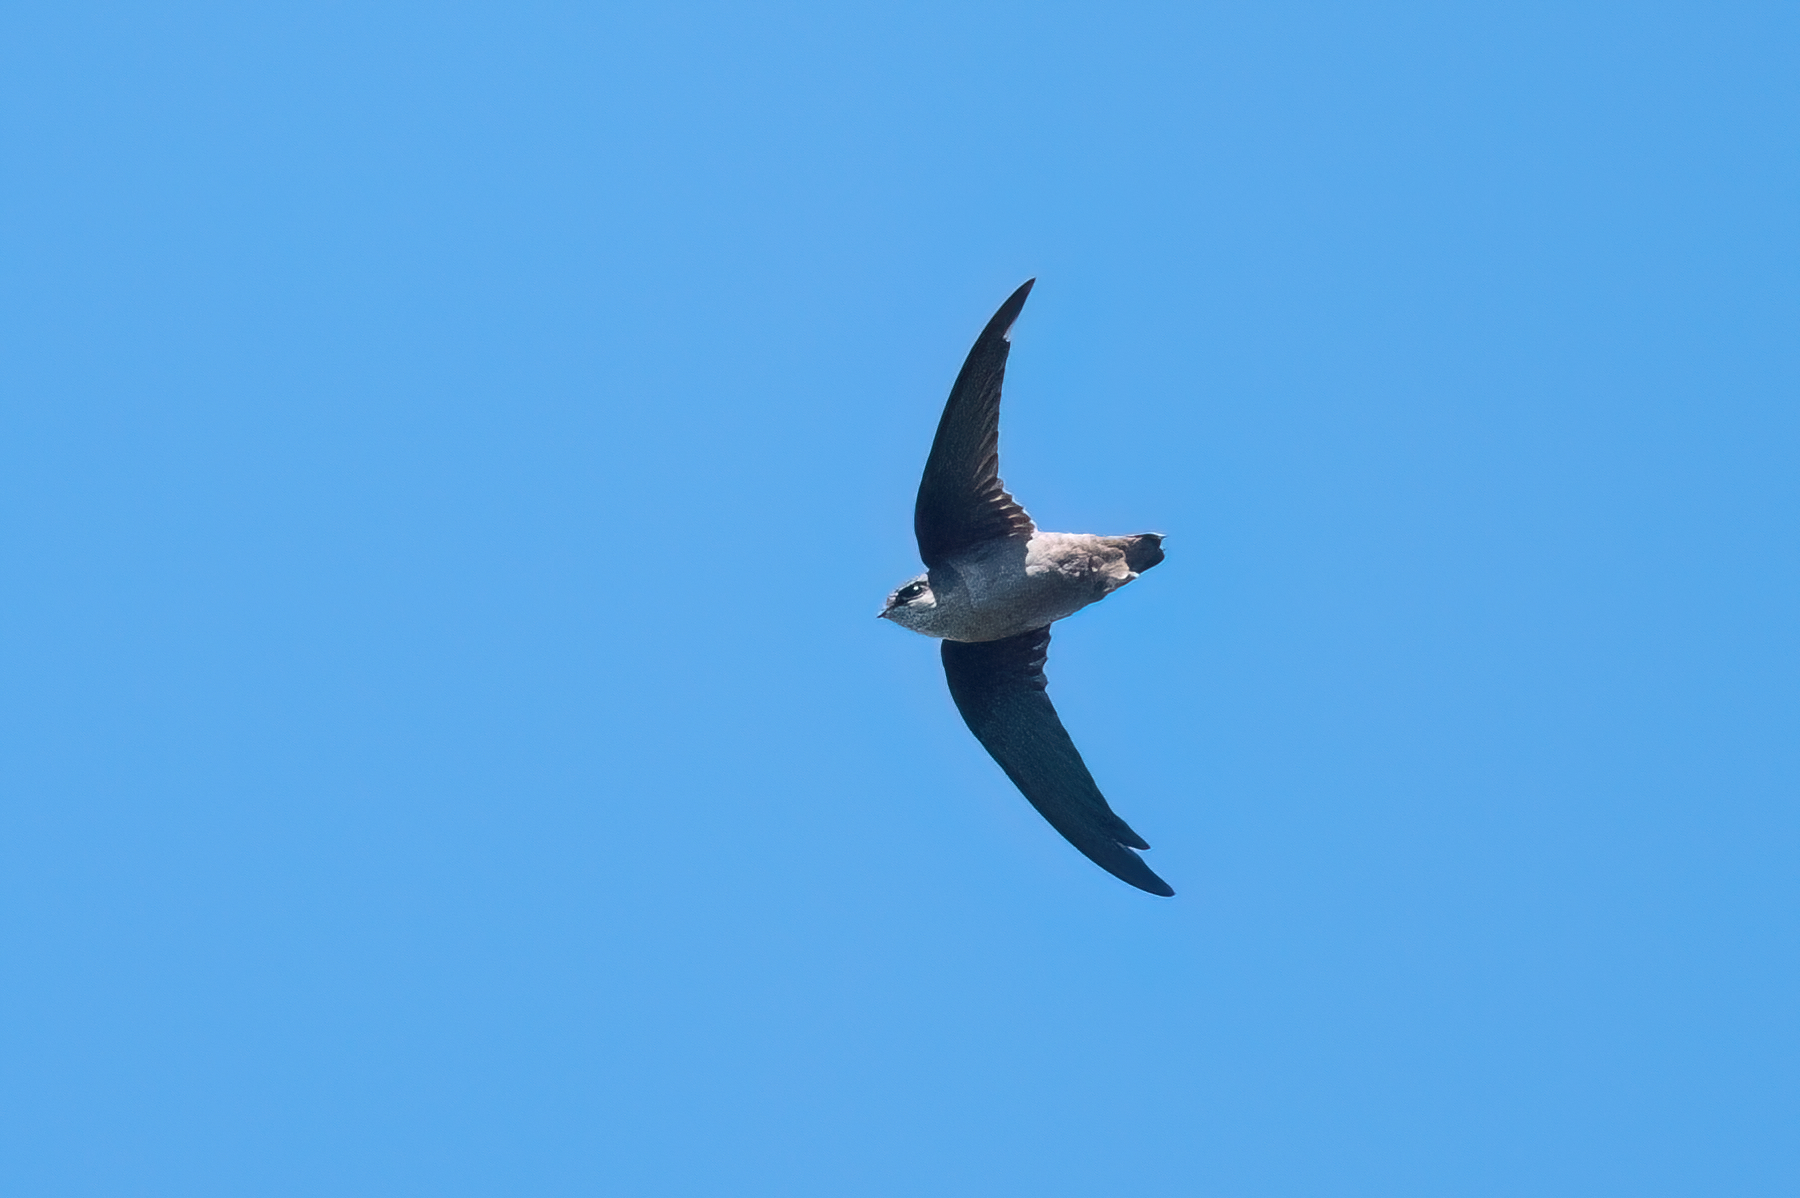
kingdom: Animalia
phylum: Chordata
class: Aves
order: Apodiformes
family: Apodidae
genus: Chaetura
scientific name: Chaetura vauxi
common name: Vaux's swift
